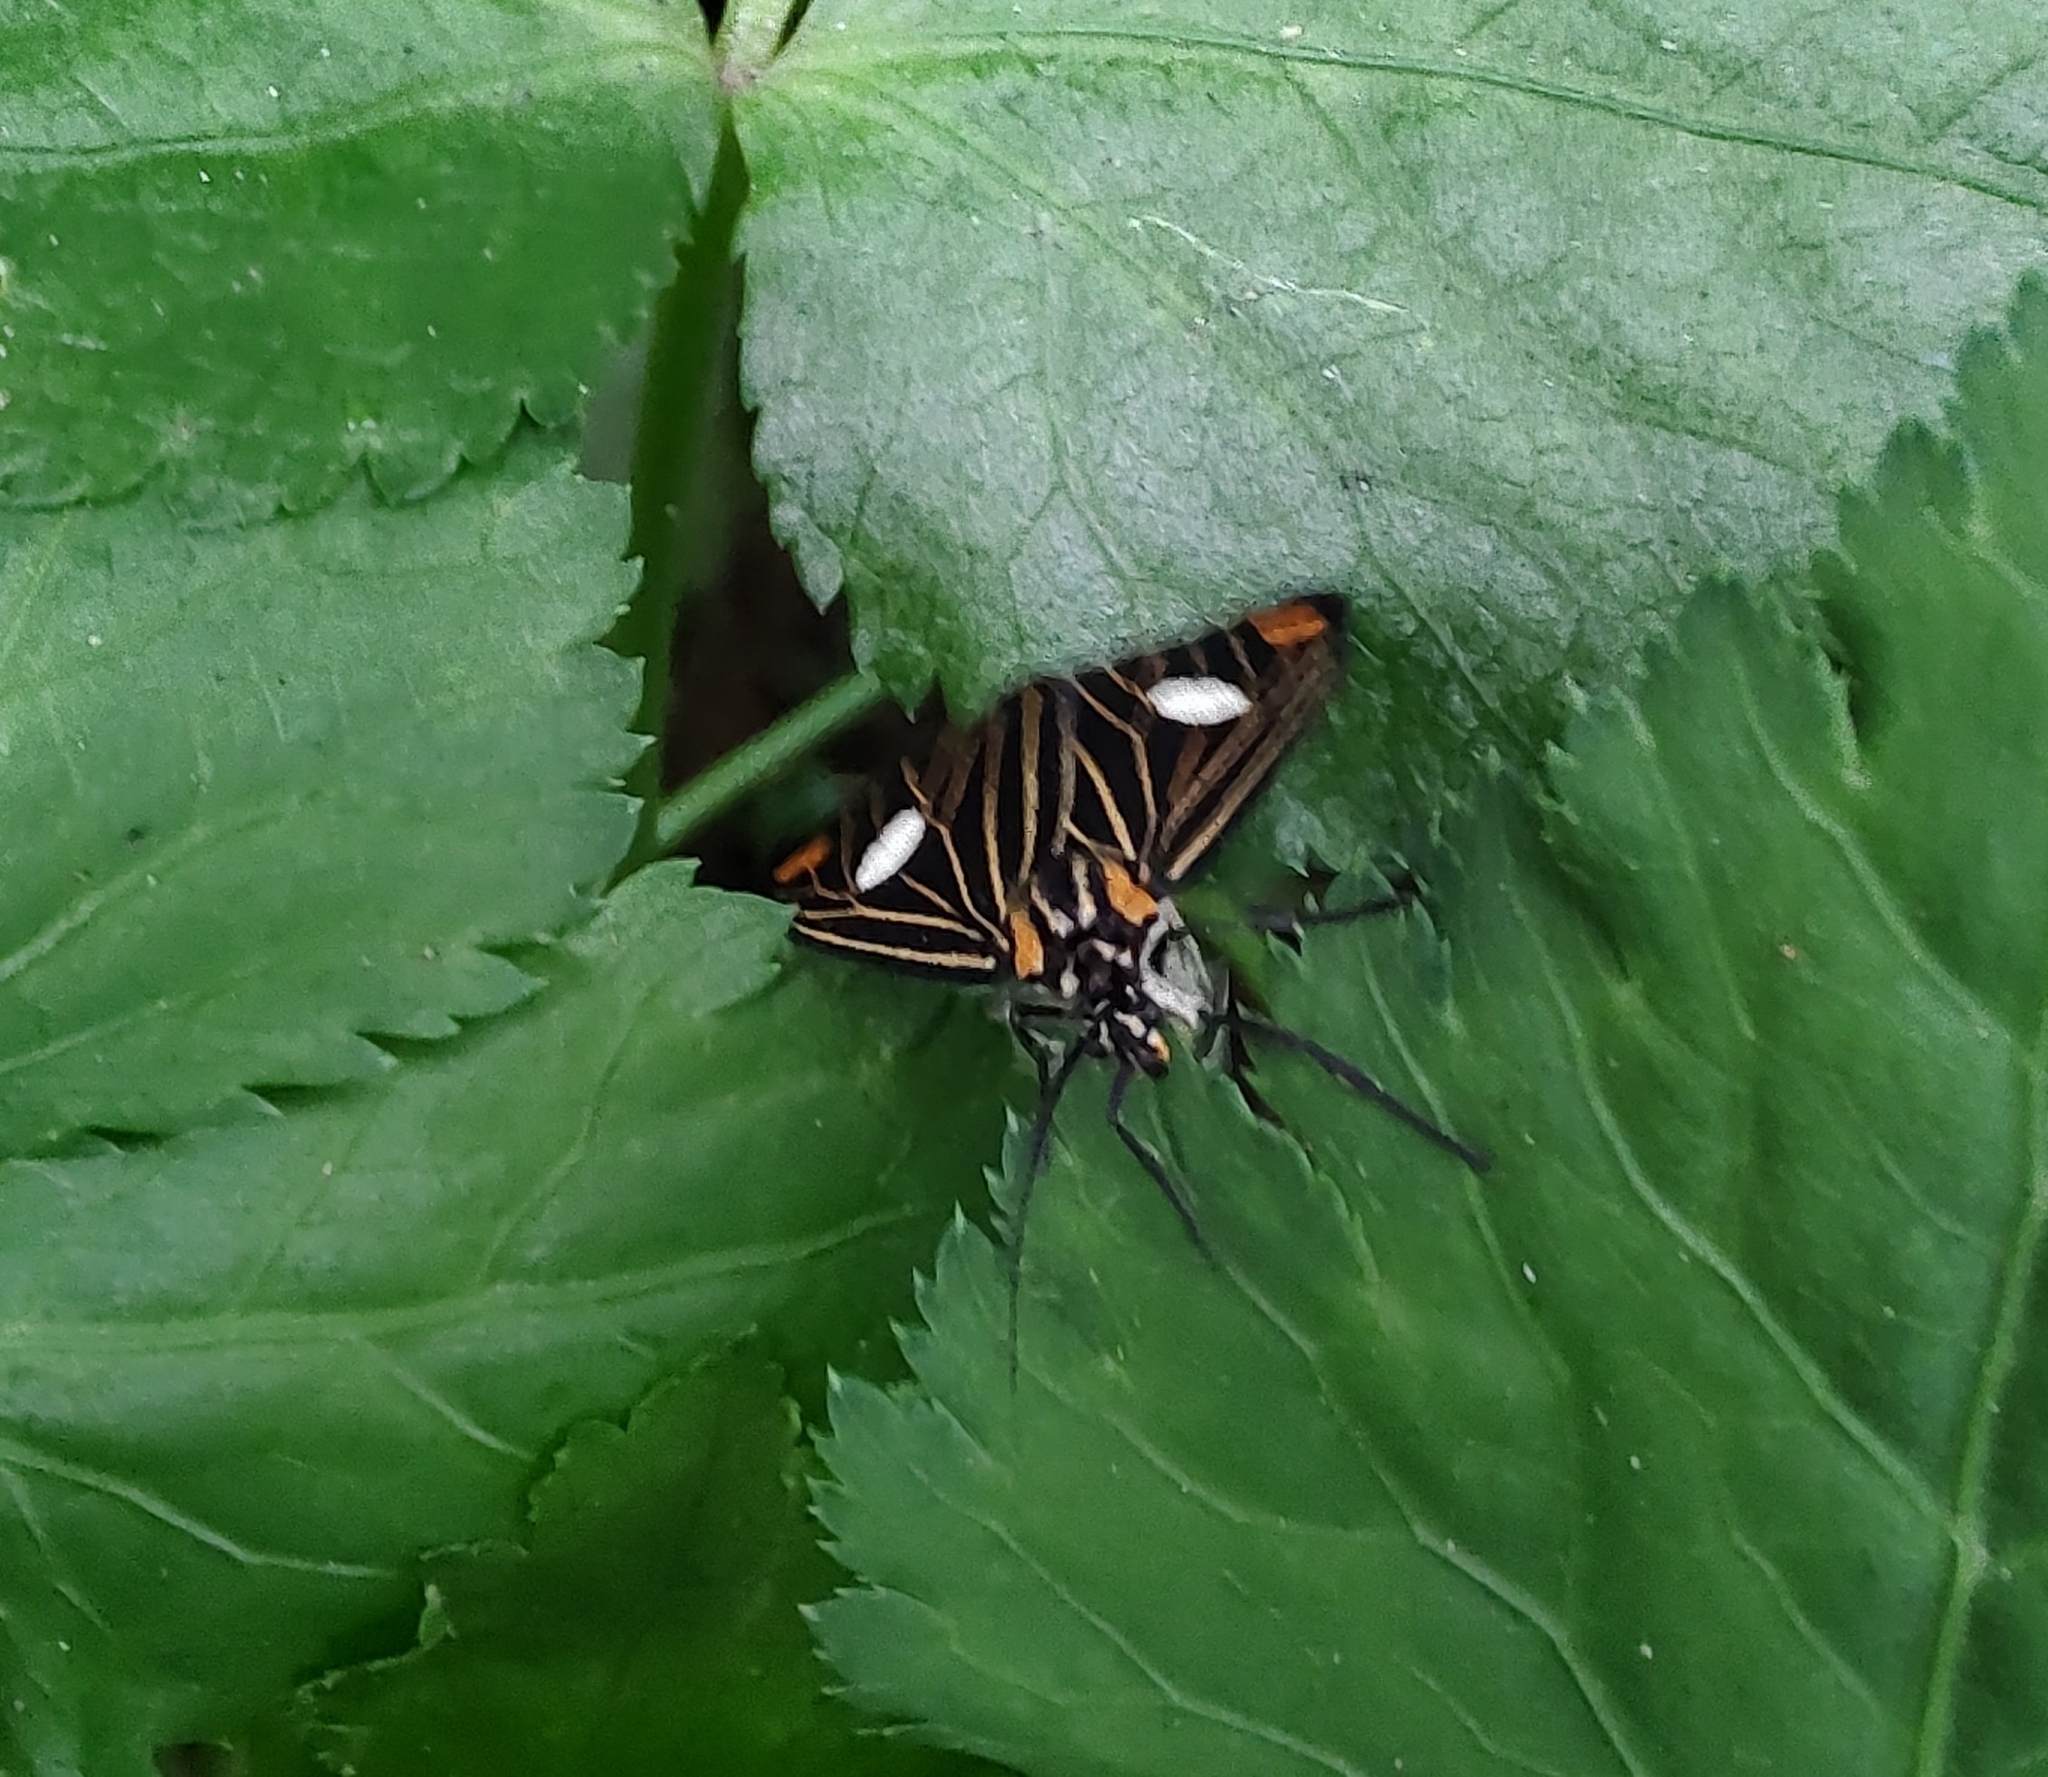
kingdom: Animalia
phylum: Arthropoda
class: Insecta
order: Lepidoptera
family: Notodontidae
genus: Polypoetes
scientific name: Polypoetes
